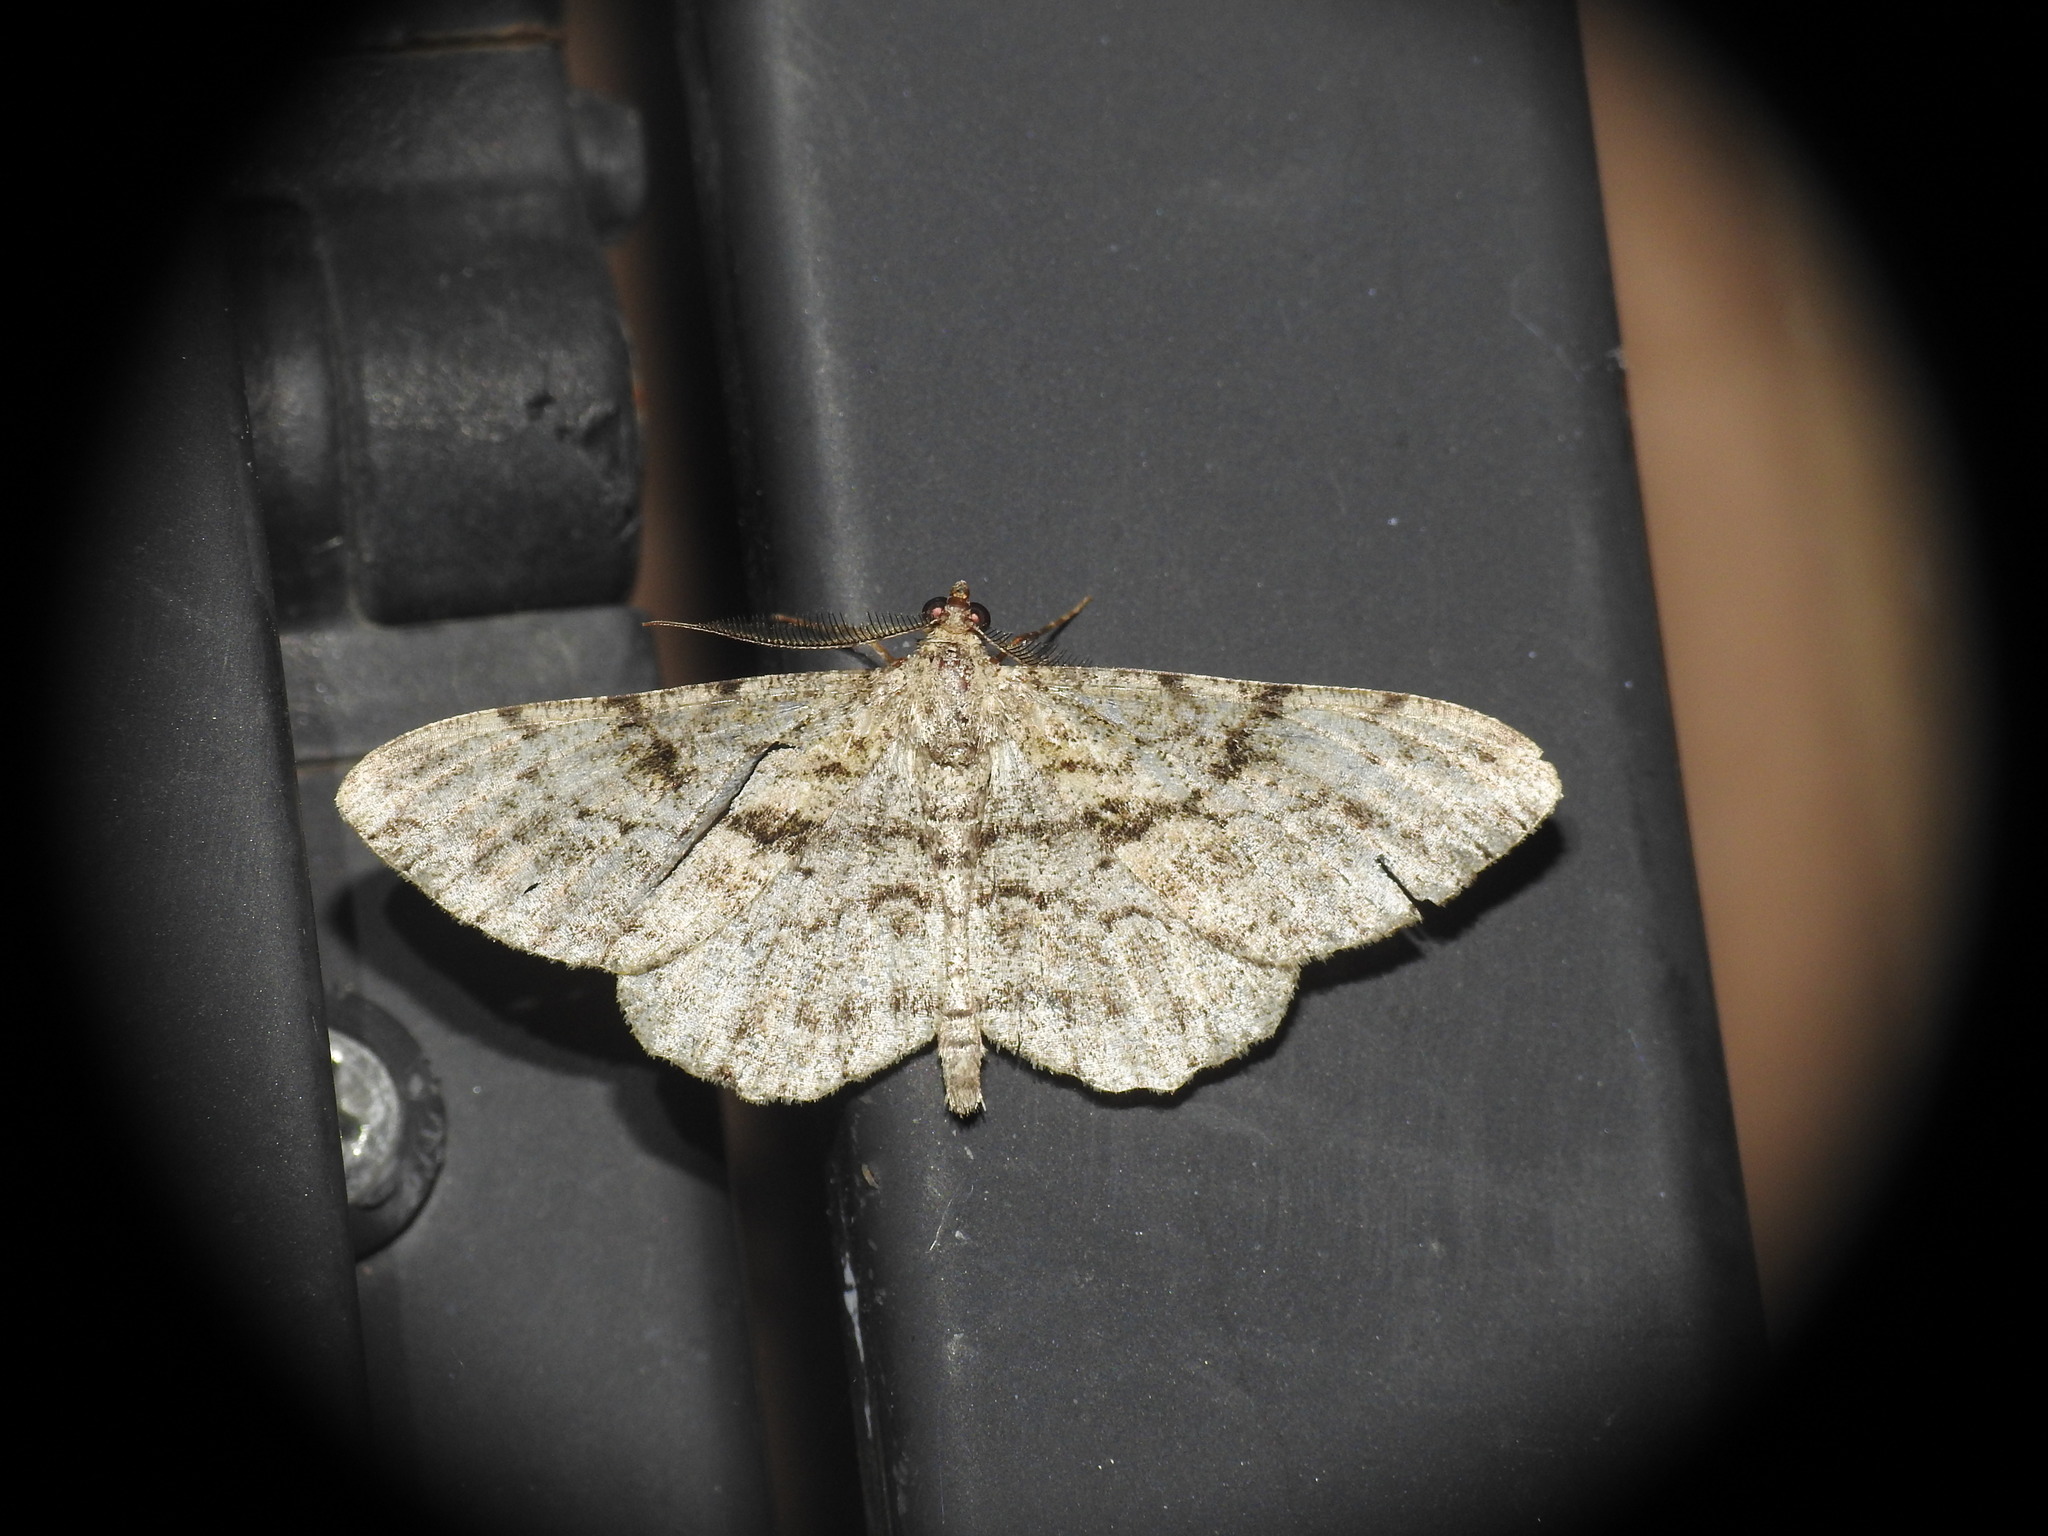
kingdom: Animalia
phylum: Arthropoda
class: Insecta
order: Lepidoptera
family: Geometridae
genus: Peribatodes
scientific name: Peribatodes rhomboidaria
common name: Willow beauty
